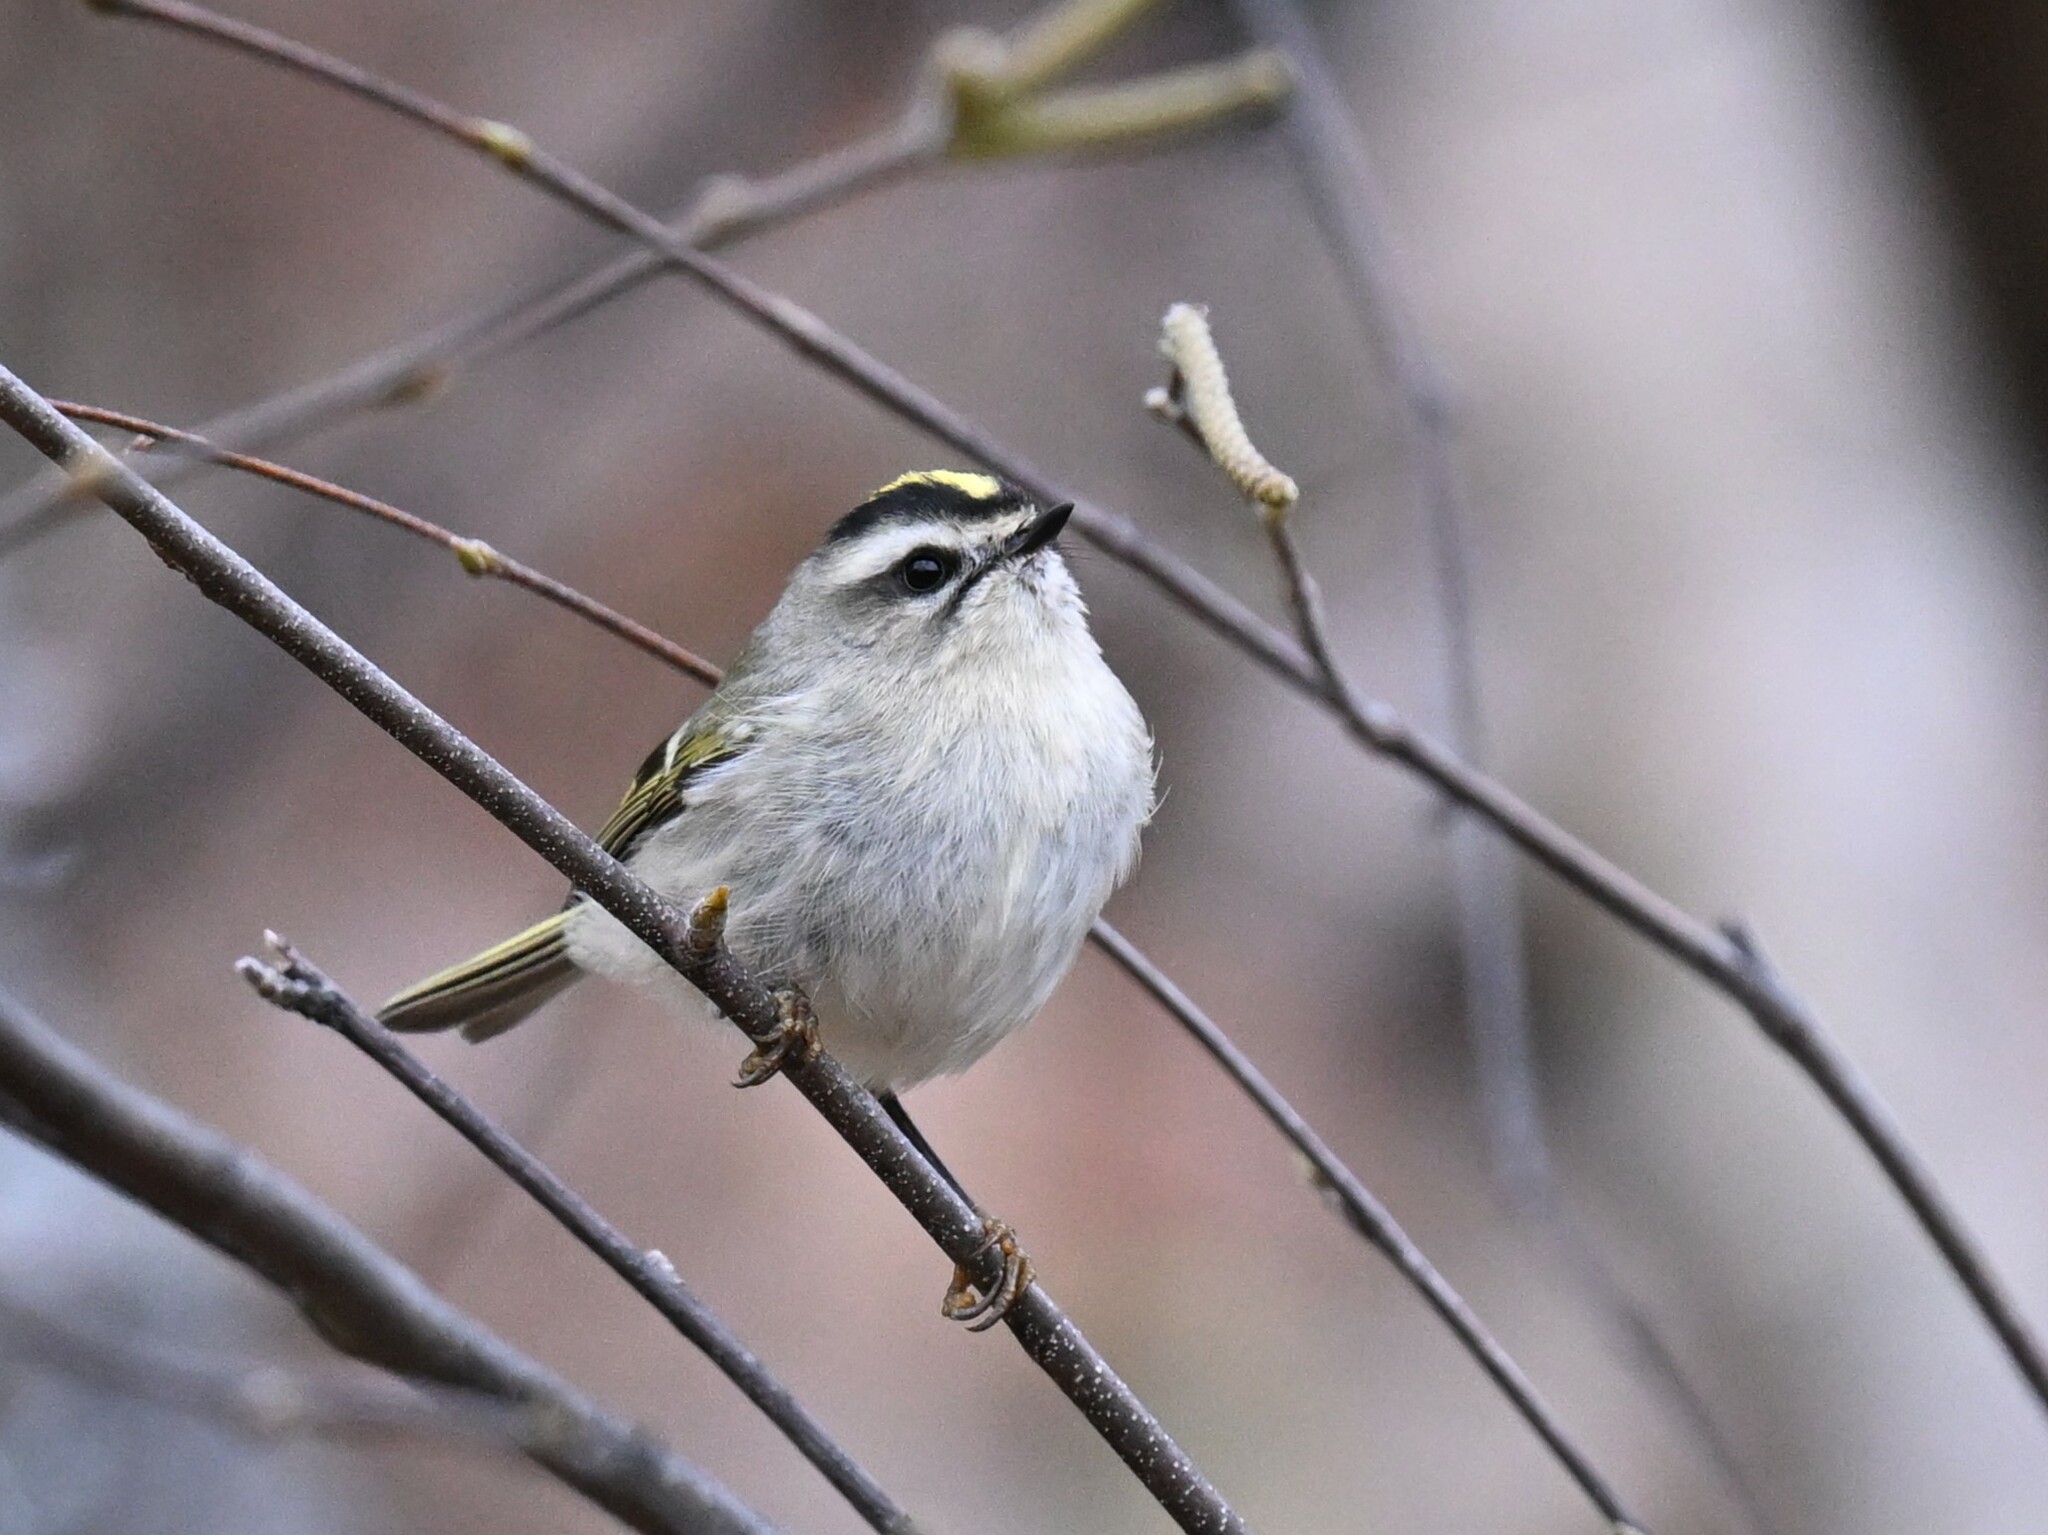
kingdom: Animalia
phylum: Chordata
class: Aves
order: Passeriformes
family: Regulidae
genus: Regulus
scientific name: Regulus satrapa
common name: Golden-crowned kinglet
